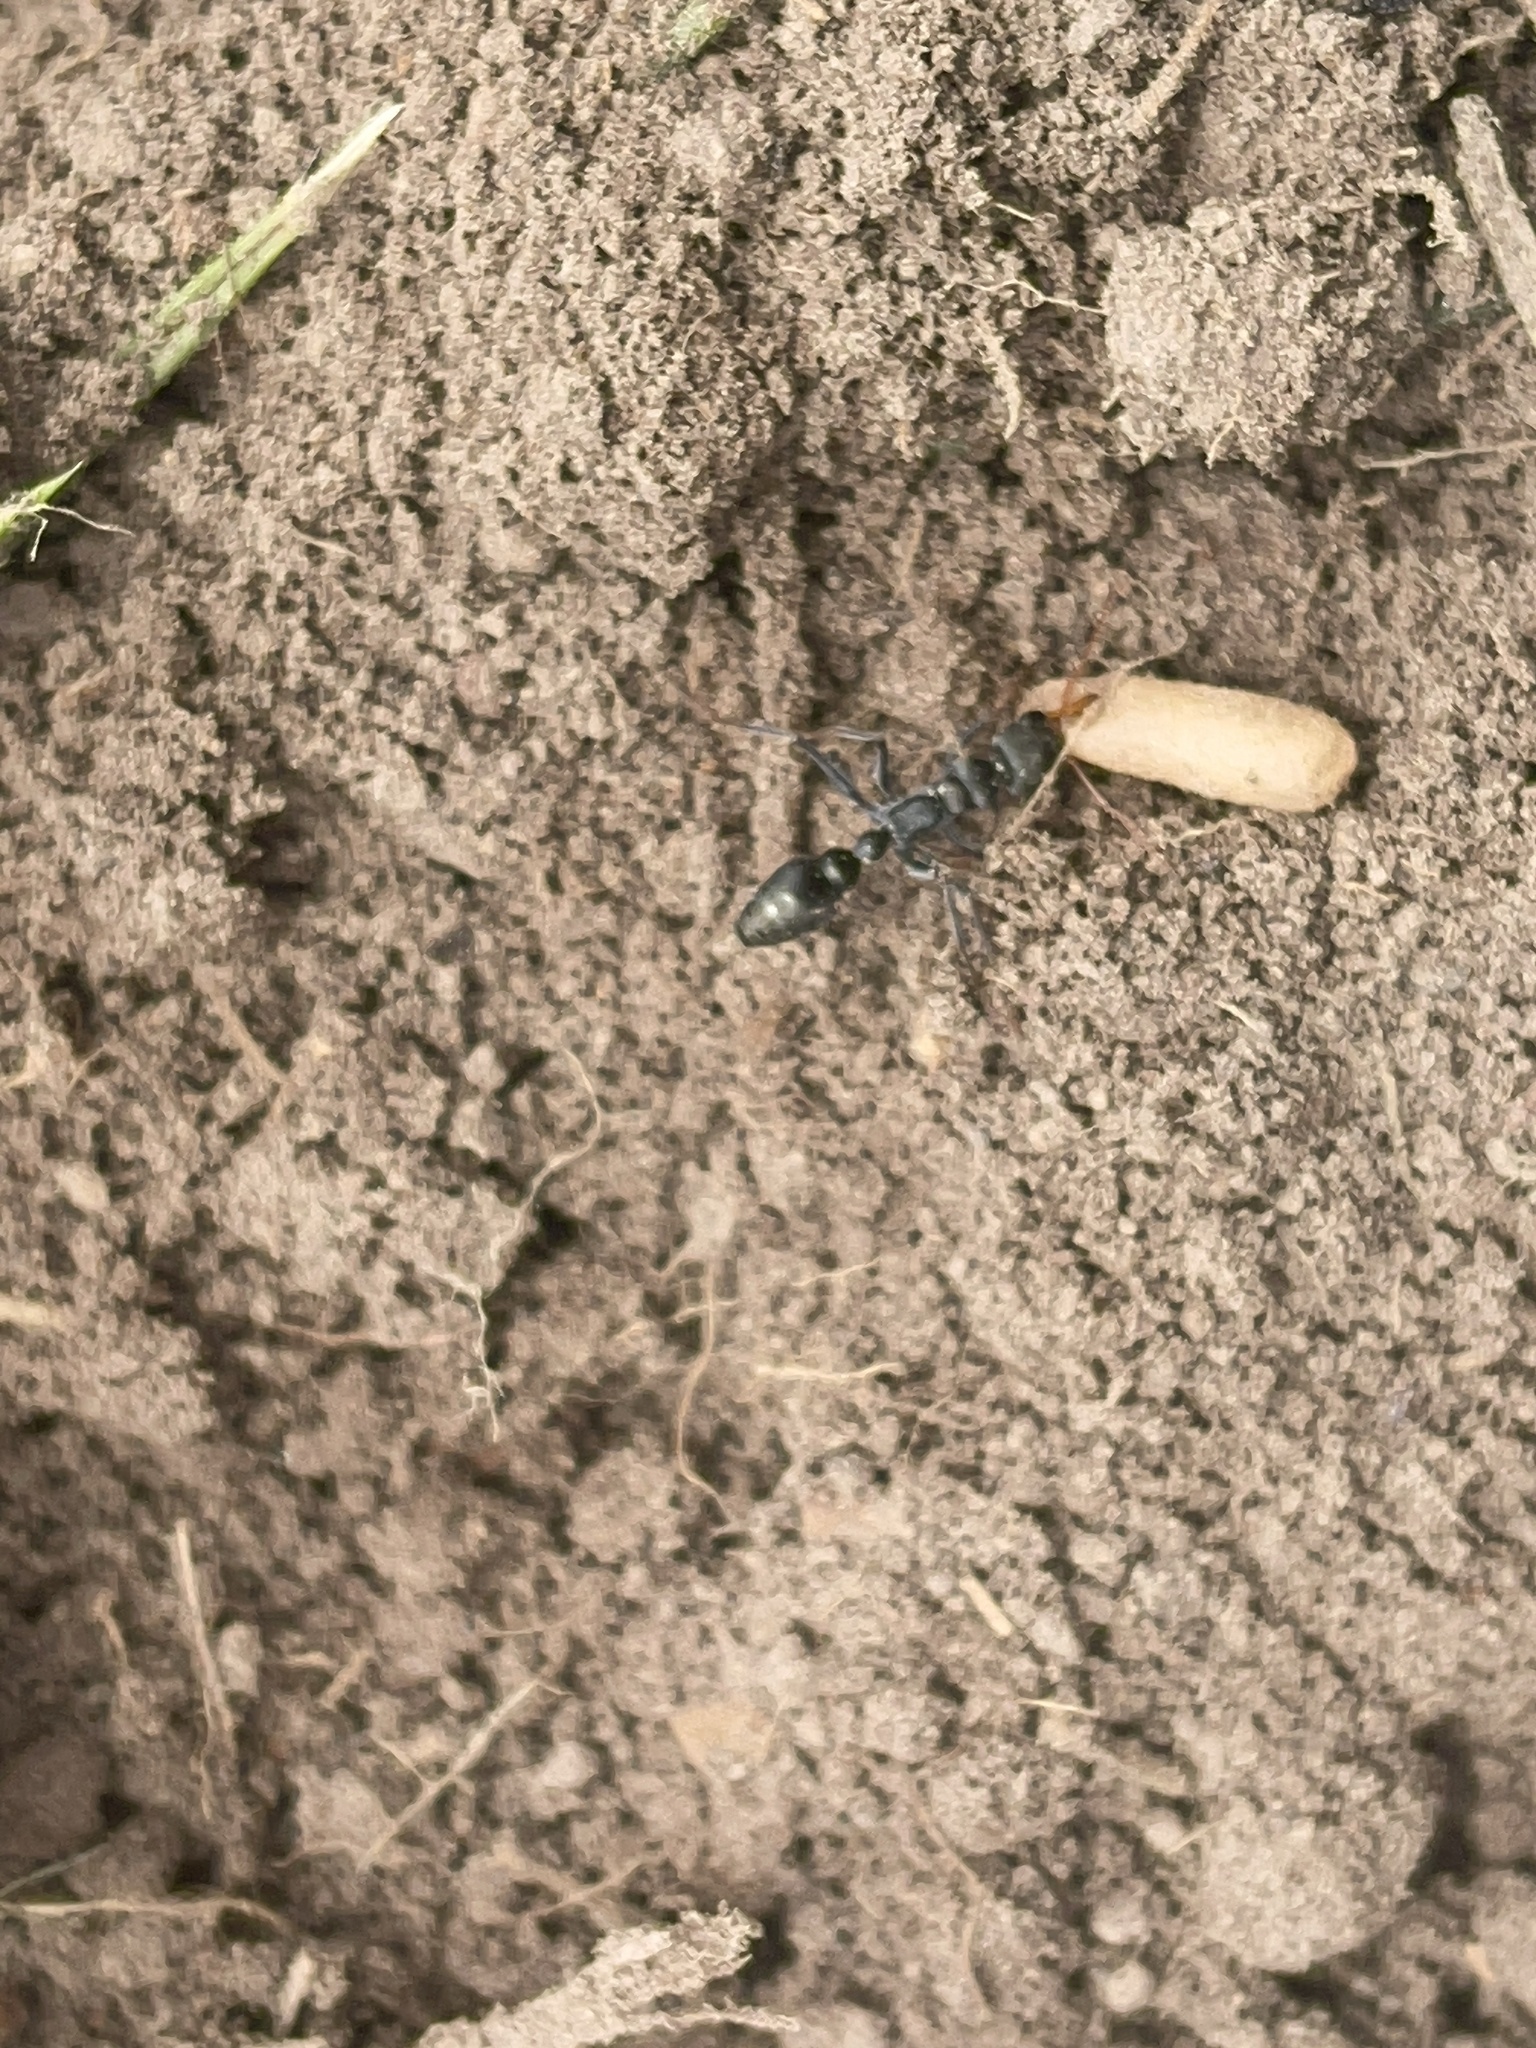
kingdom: Animalia
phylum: Arthropoda
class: Insecta
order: Hymenoptera
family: Formicidae
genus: Myrmecia
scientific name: Myrmecia pilosula
